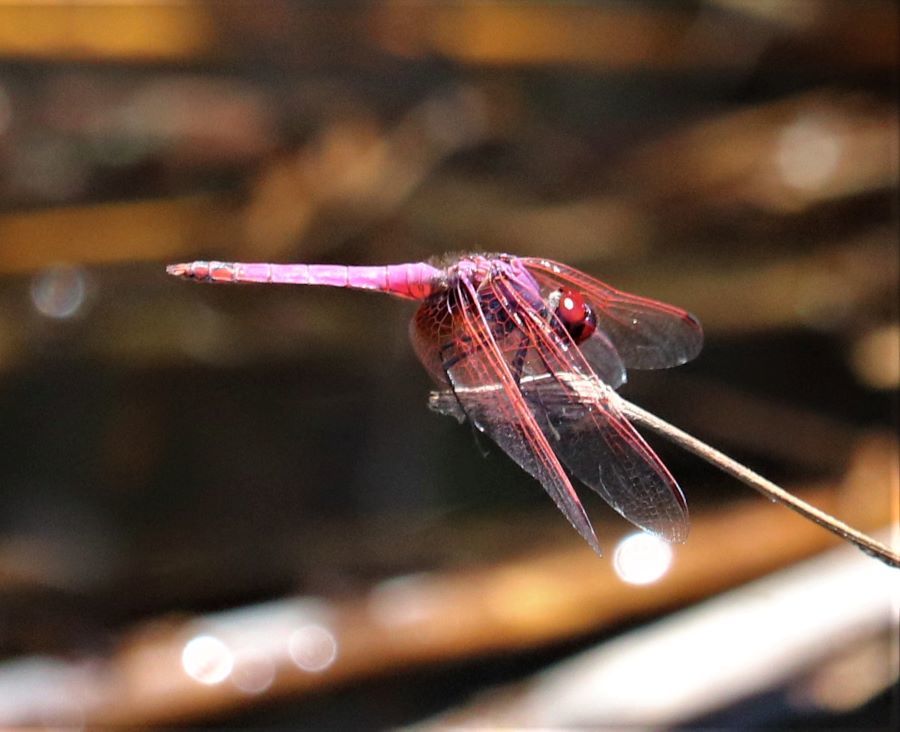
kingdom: Animalia
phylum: Arthropoda
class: Insecta
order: Odonata
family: Libellulidae
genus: Trithemis
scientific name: Trithemis annulata
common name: Violet dropwing
